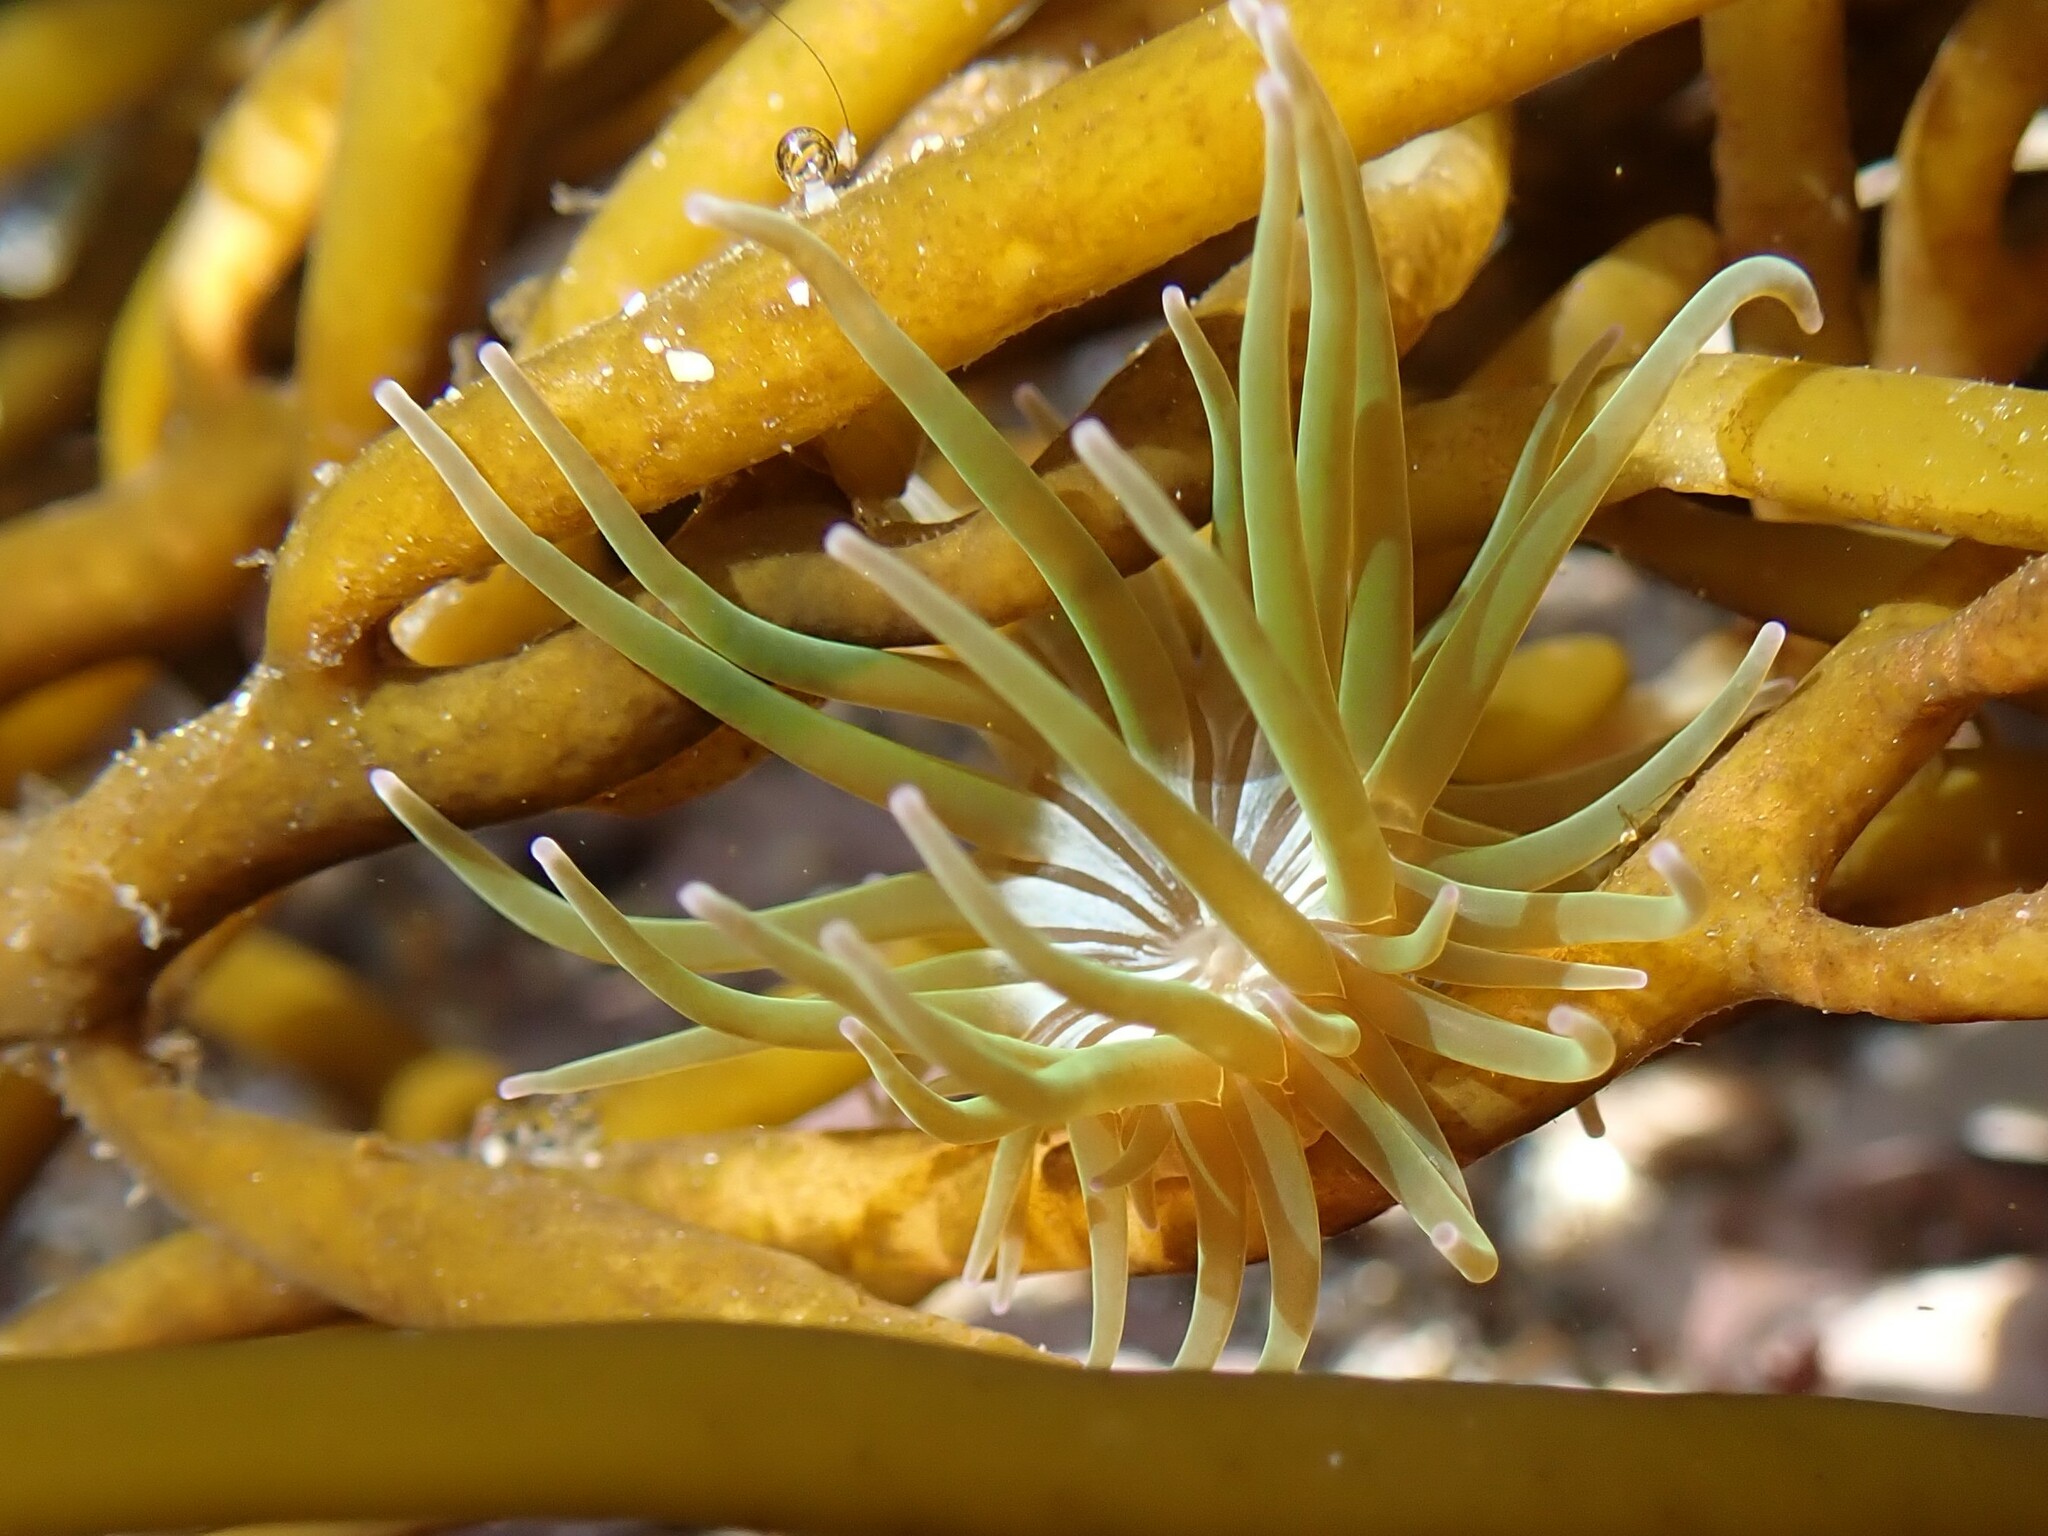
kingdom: Animalia
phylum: Cnidaria
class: Anthozoa
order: Actiniaria
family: Actiniidae
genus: Anemonia
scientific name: Anemonia viridis
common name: Snakelocks anemone
